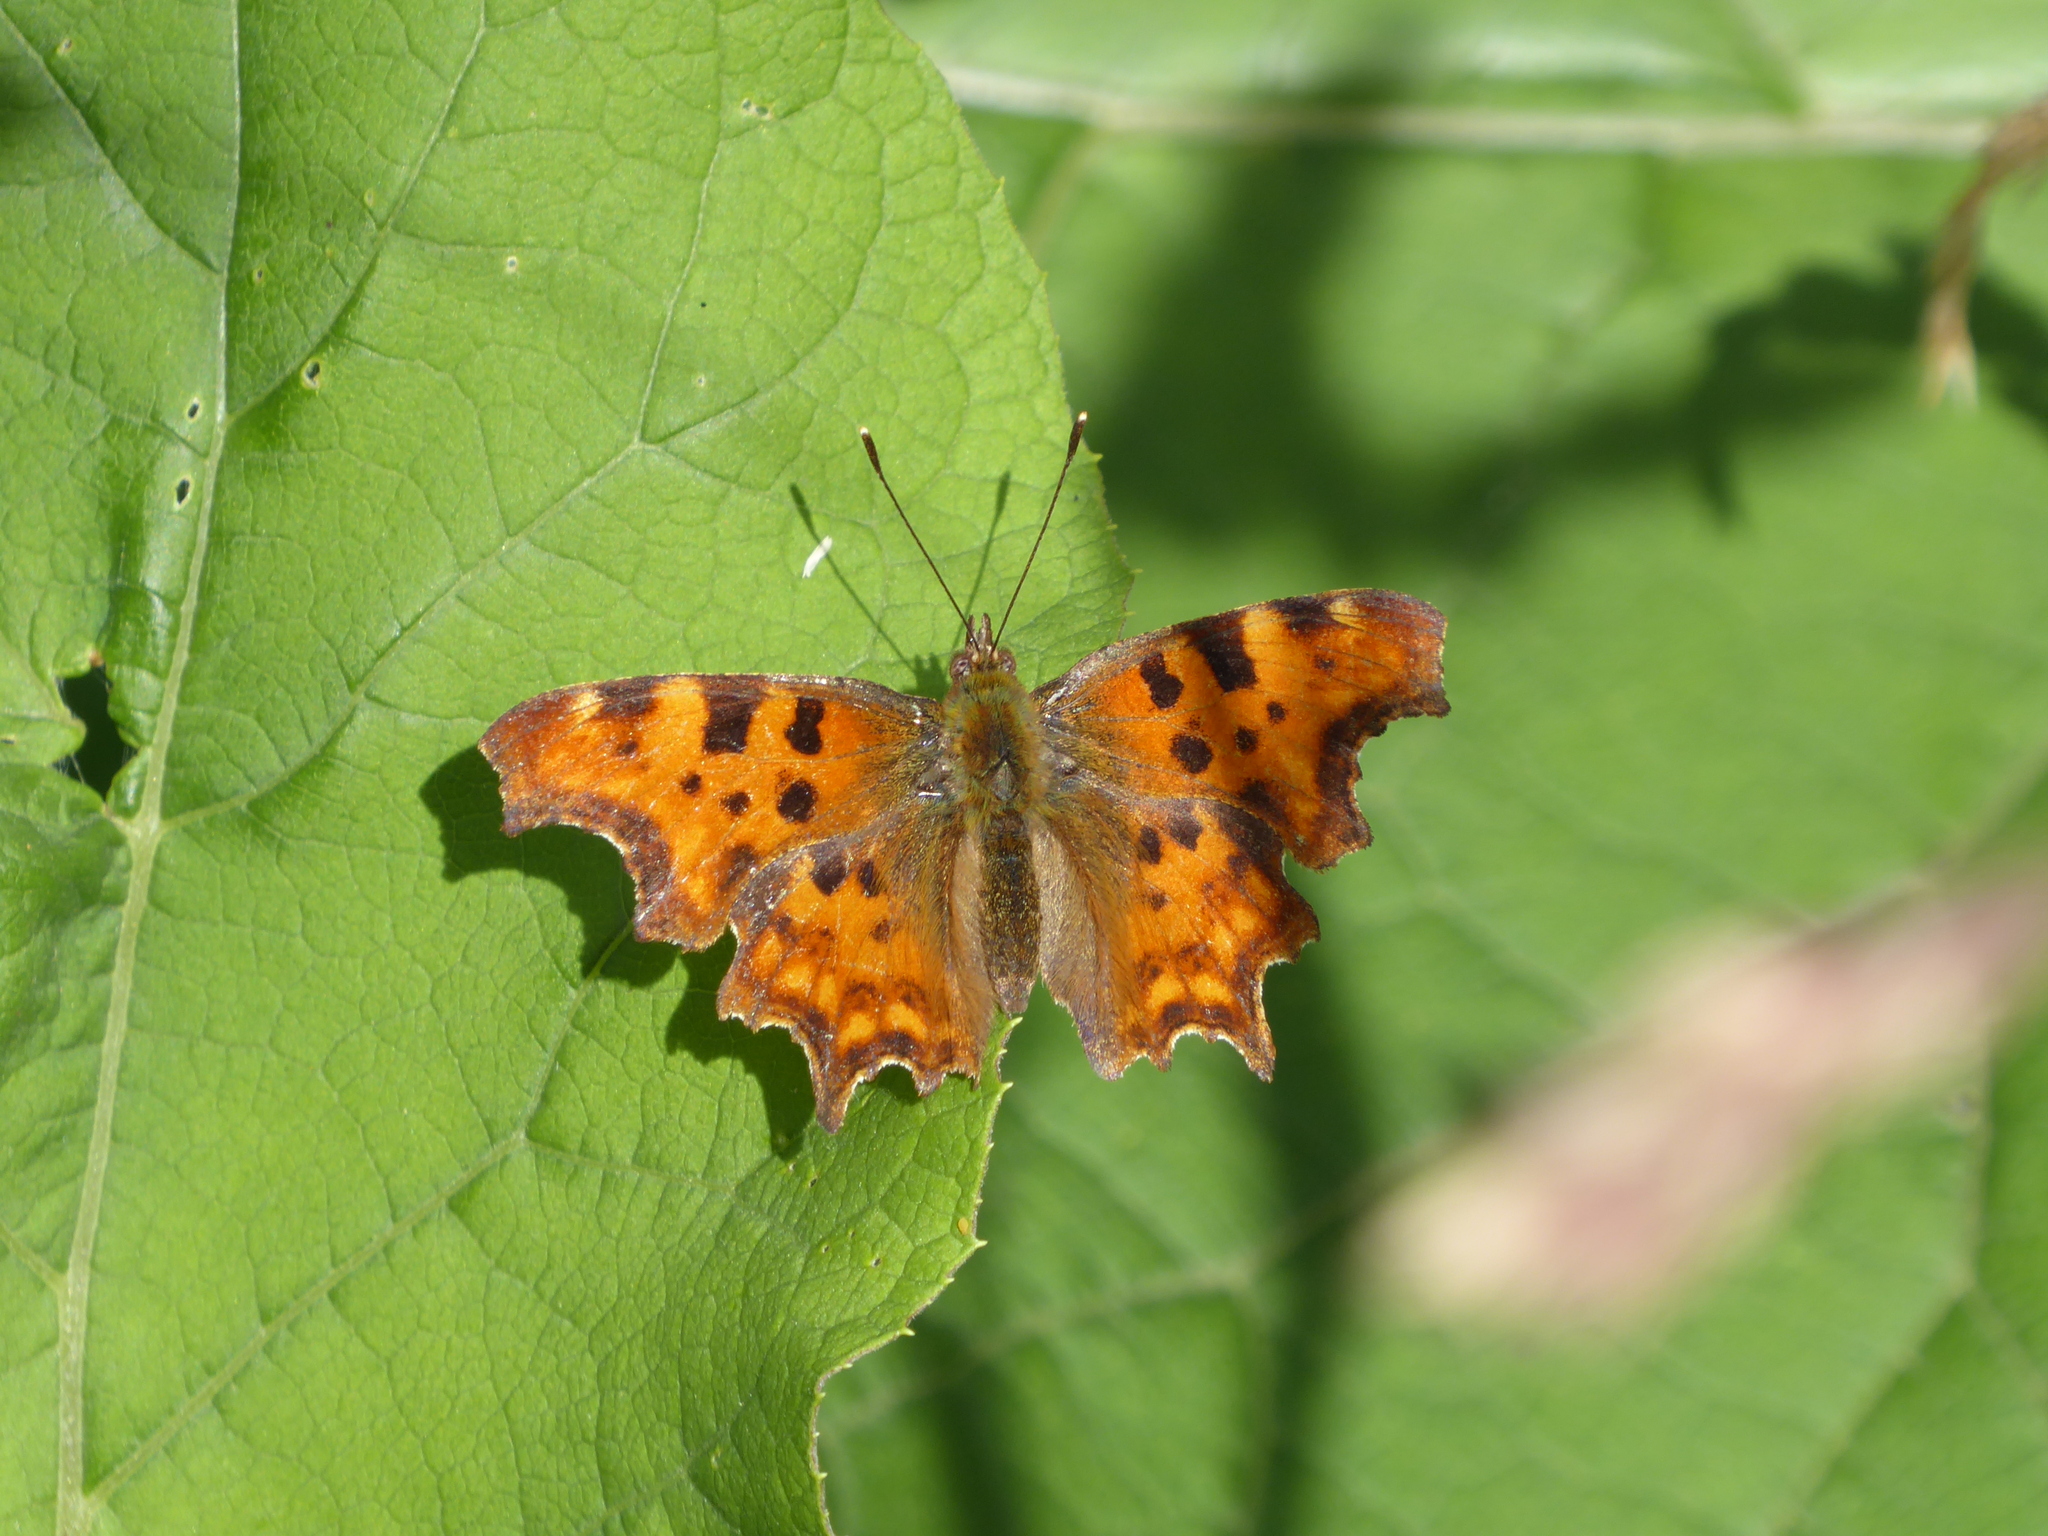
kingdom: Animalia
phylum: Arthropoda
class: Insecta
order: Lepidoptera
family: Nymphalidae
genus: Polygonia
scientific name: Polygonia c-album
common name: Comma
